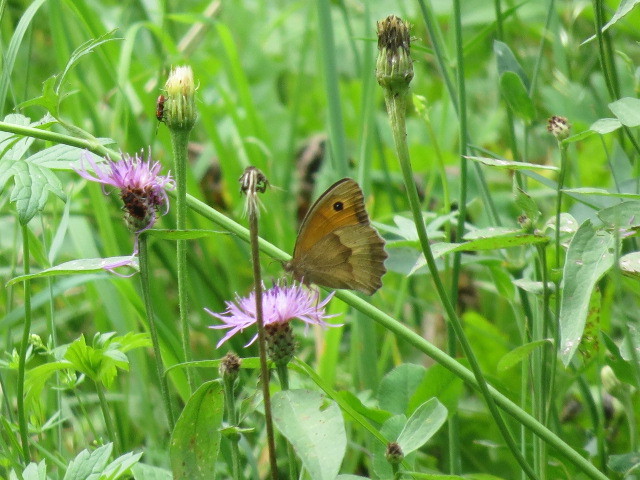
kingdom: Animalia
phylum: Arthropoda
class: Insecta
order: Lepidoptera
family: Nymphalidae
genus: Maniola
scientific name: Maniola jurtina
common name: Meadow brown
